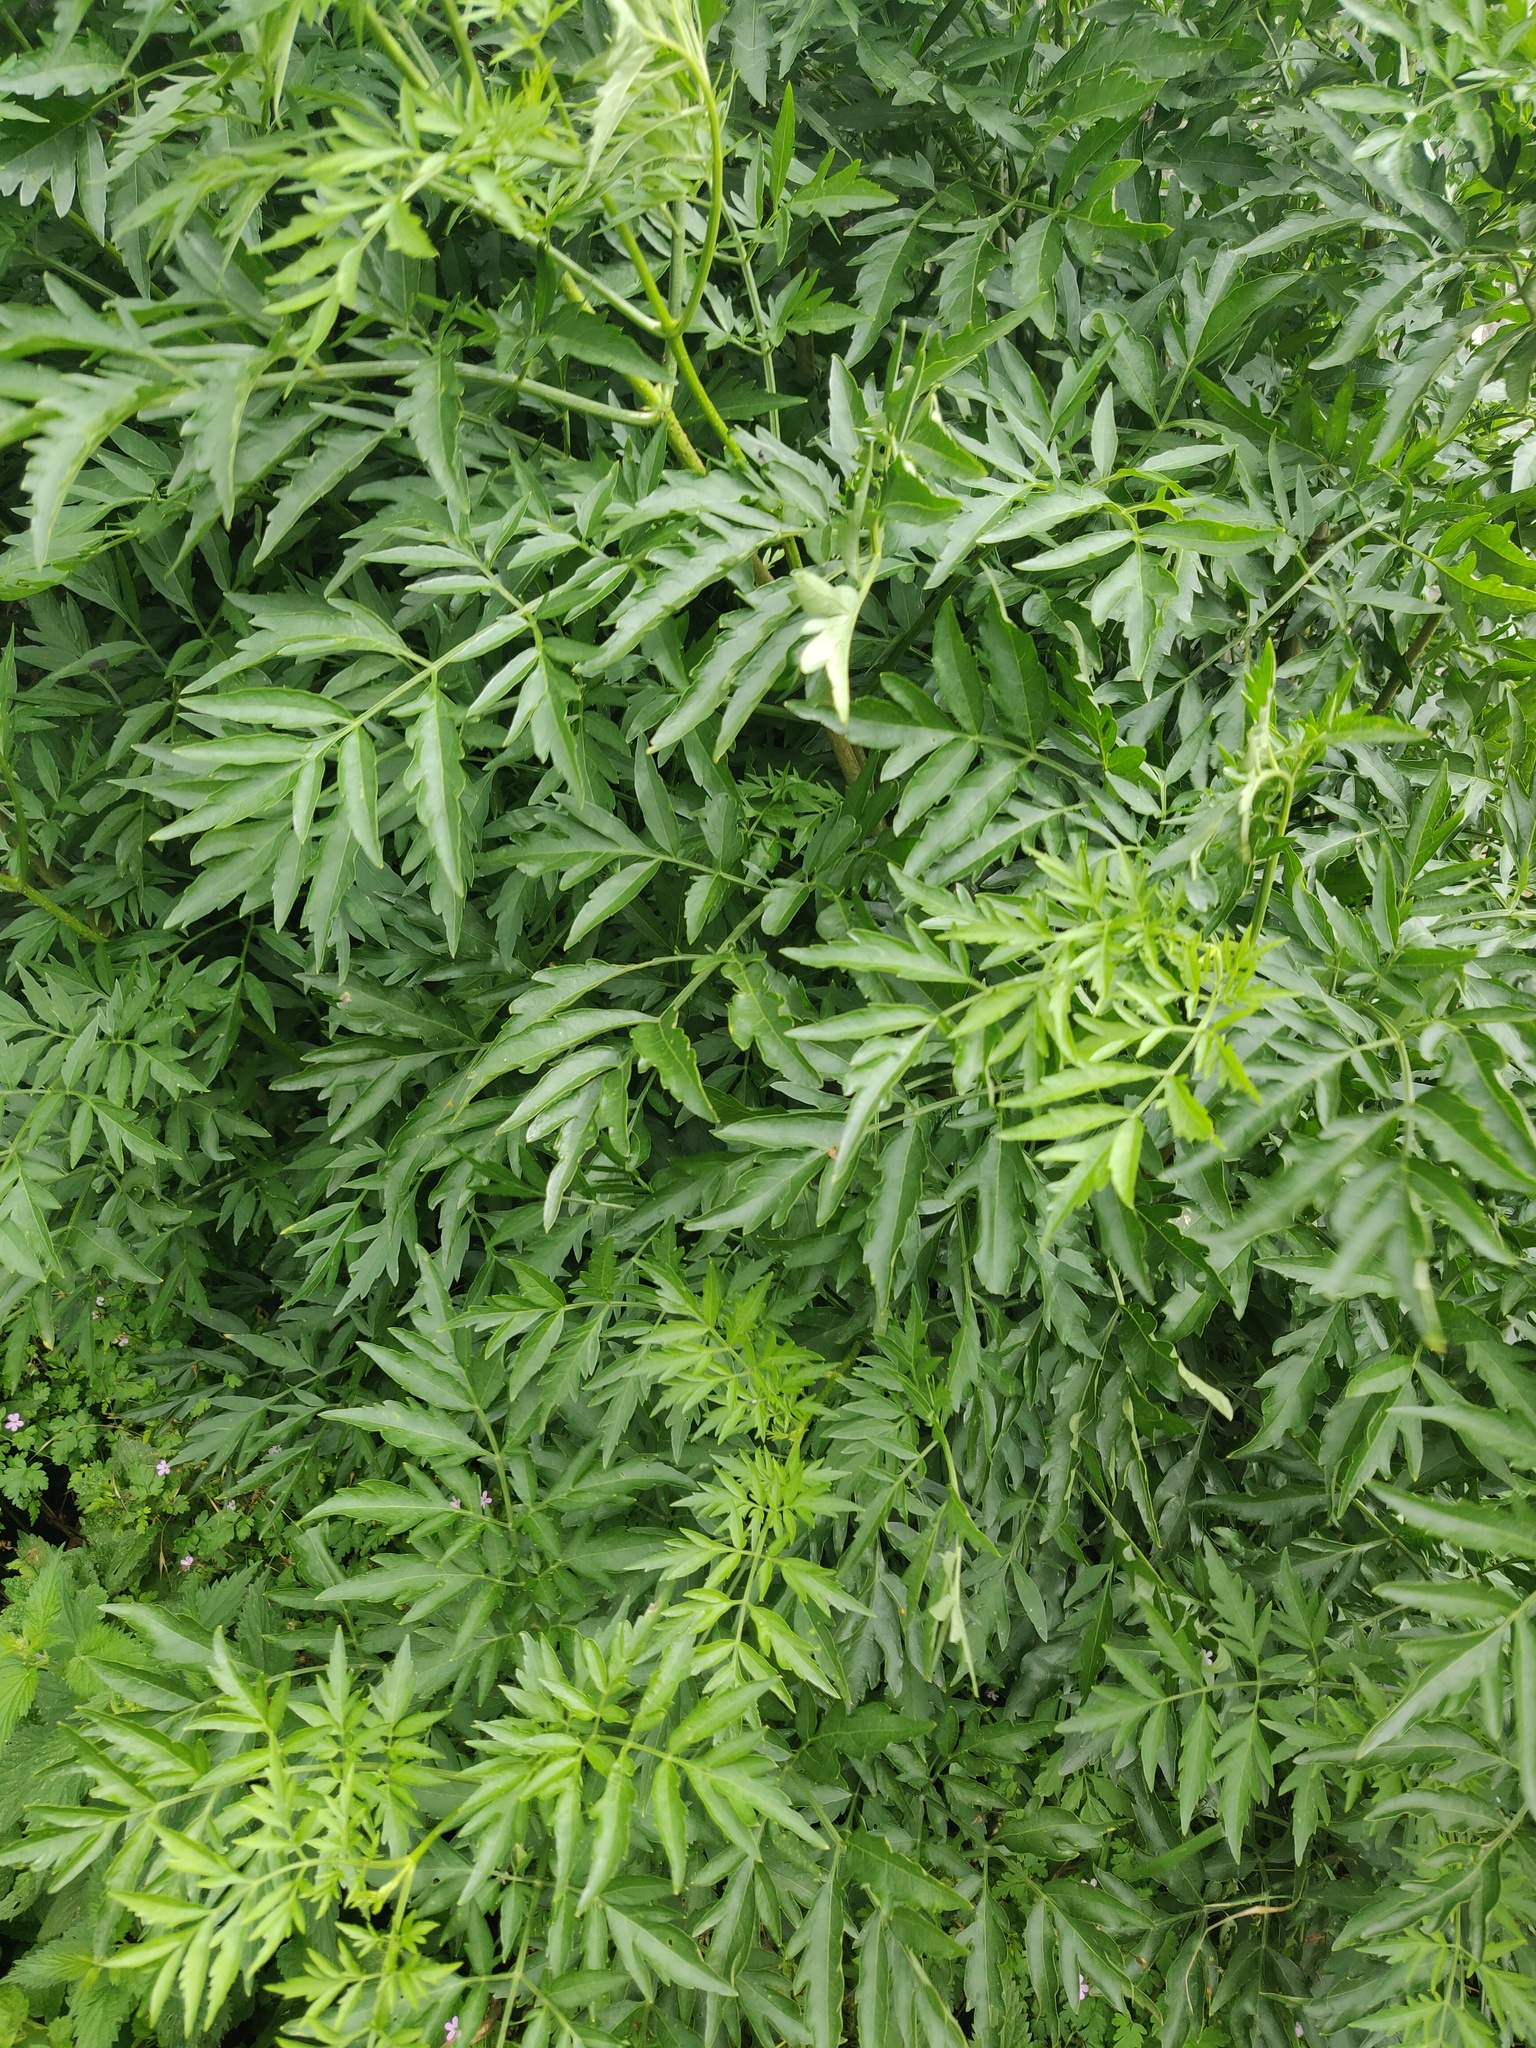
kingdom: Plantae
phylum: Tracheophyta
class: Magnoliopsida
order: Dipsacales
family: Viburnaceae
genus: Sambucus
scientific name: Sambucus nigra
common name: Elder
